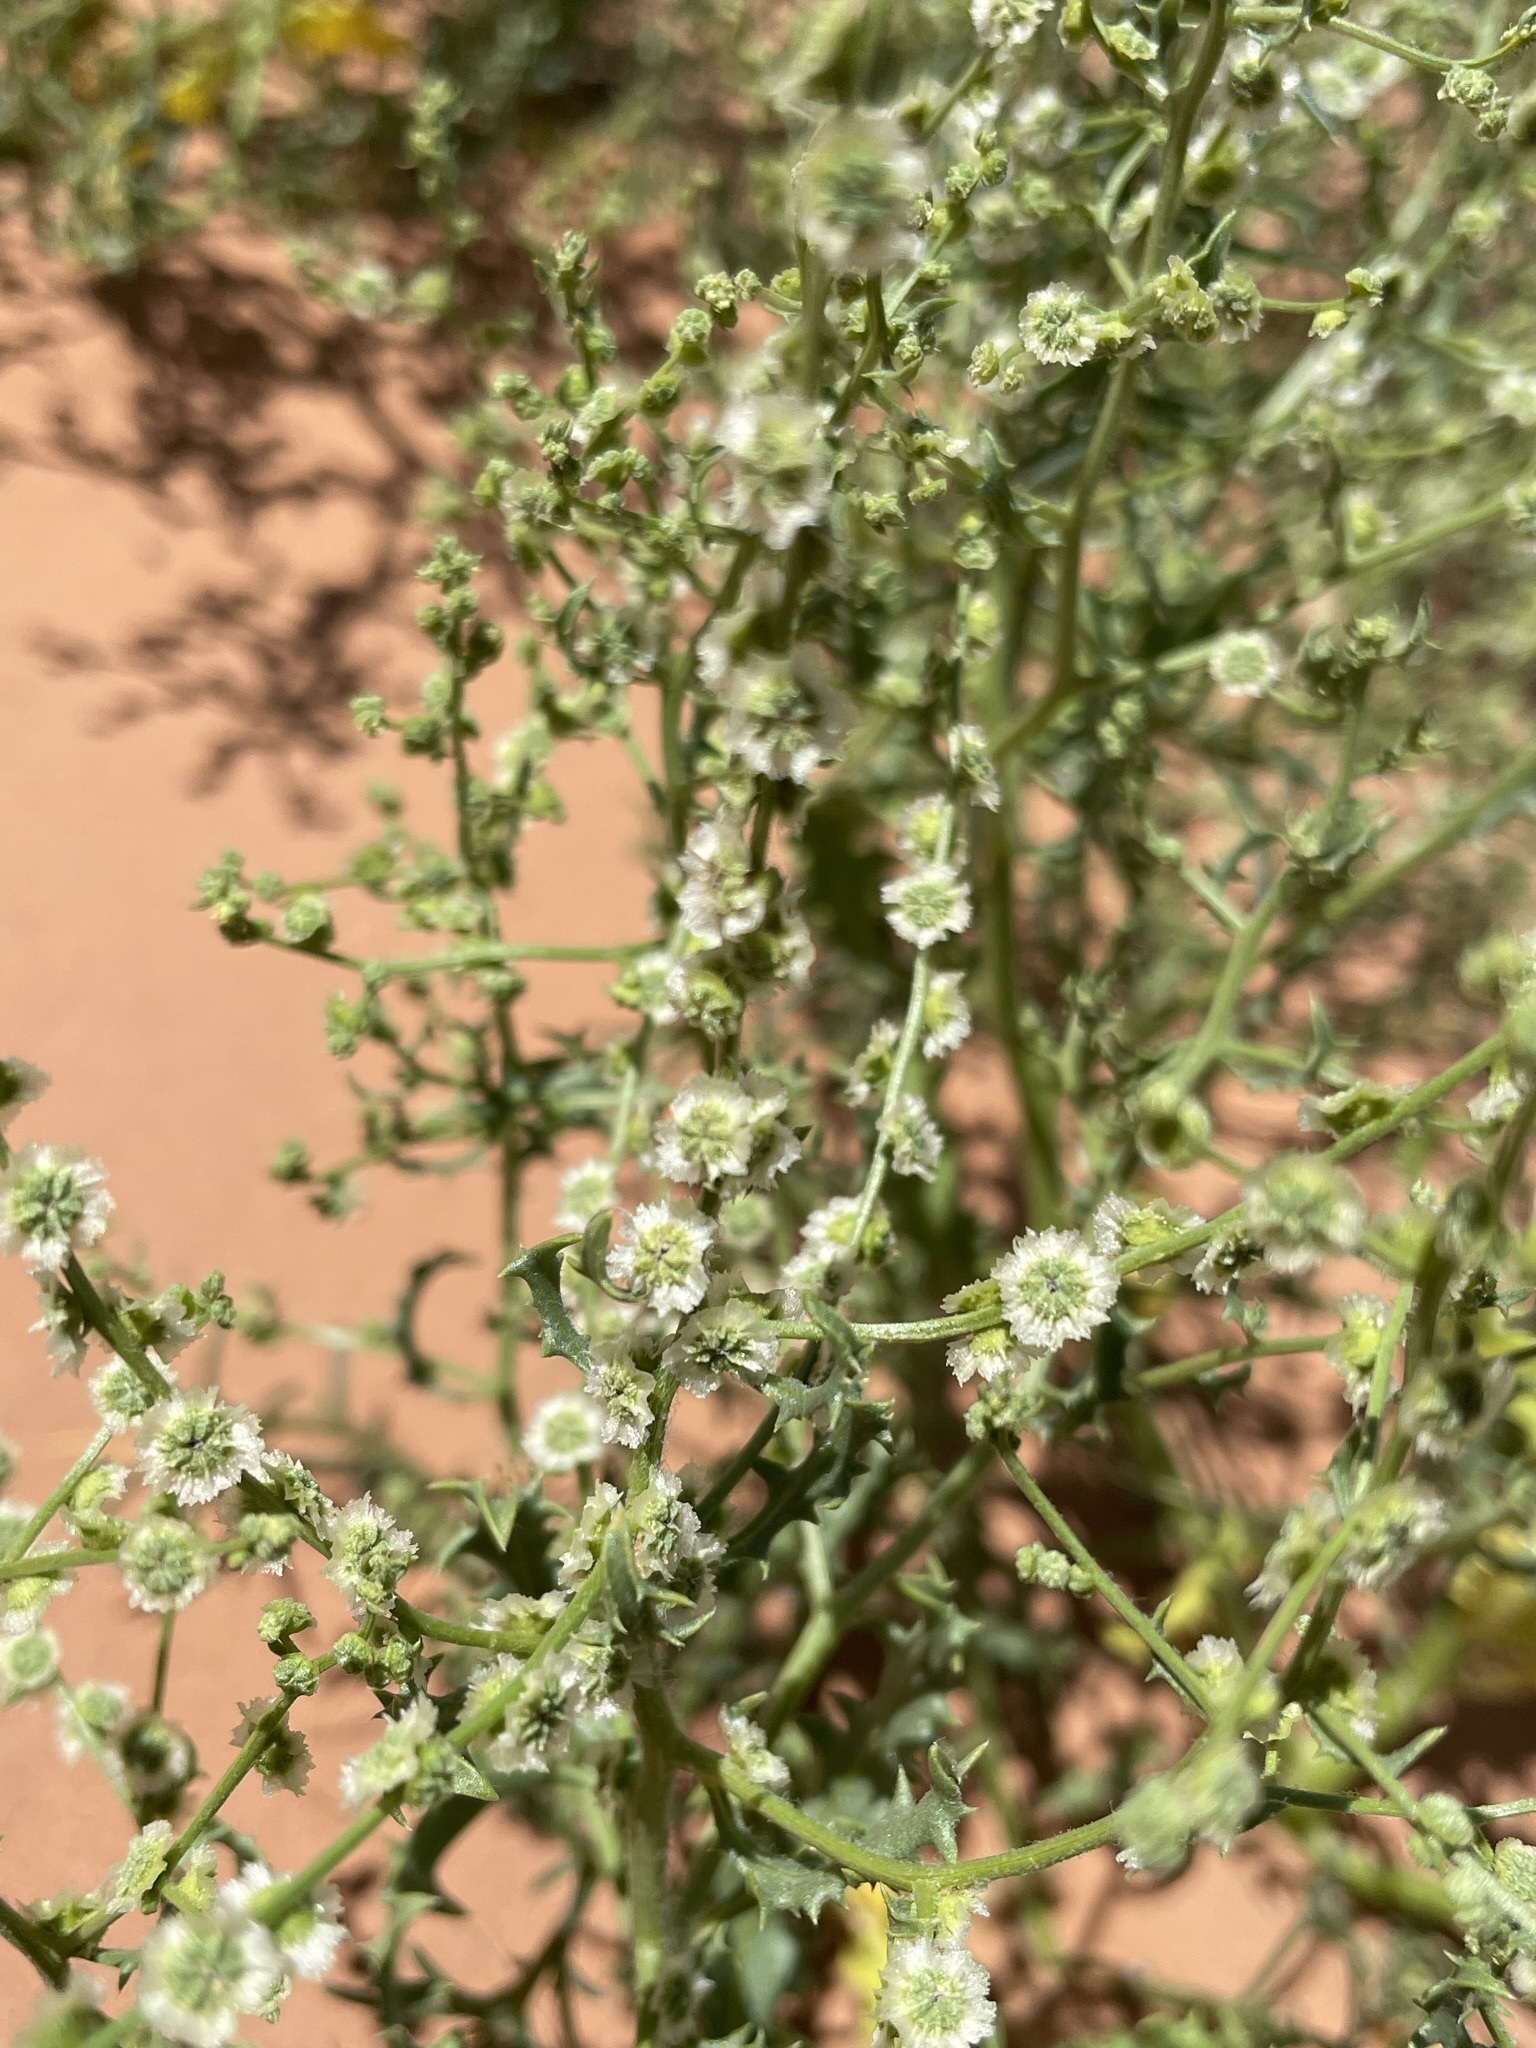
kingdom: Plantae
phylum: Tracheophyta
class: Magnoliopsida
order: Caryophyllales
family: Amaranthaceae
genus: Dysphania
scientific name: Dysphania atriplicifolia
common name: Plains tumbleweed
